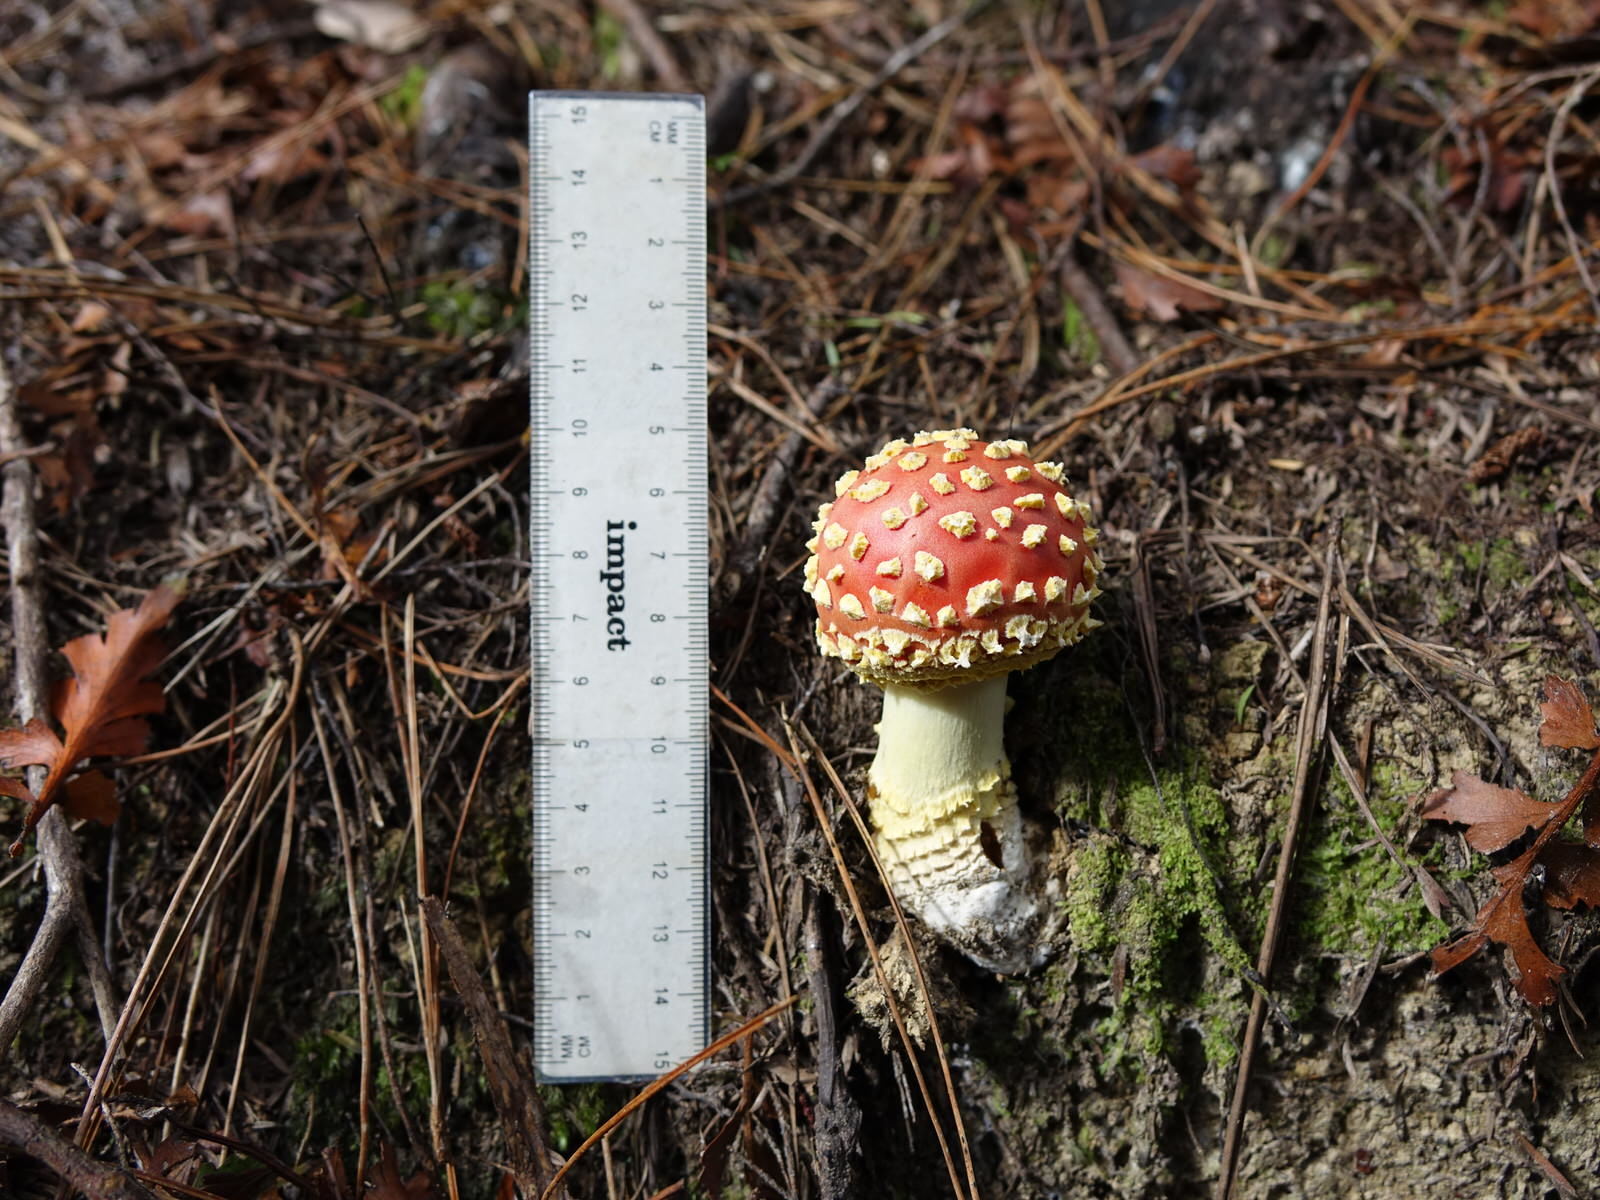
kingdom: Fungi
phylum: Basidiomycota
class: Agaricomycetes
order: Agaricales
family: Amanitaceae
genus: Amanita
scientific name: Amanita muscaria
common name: Fly agaric
